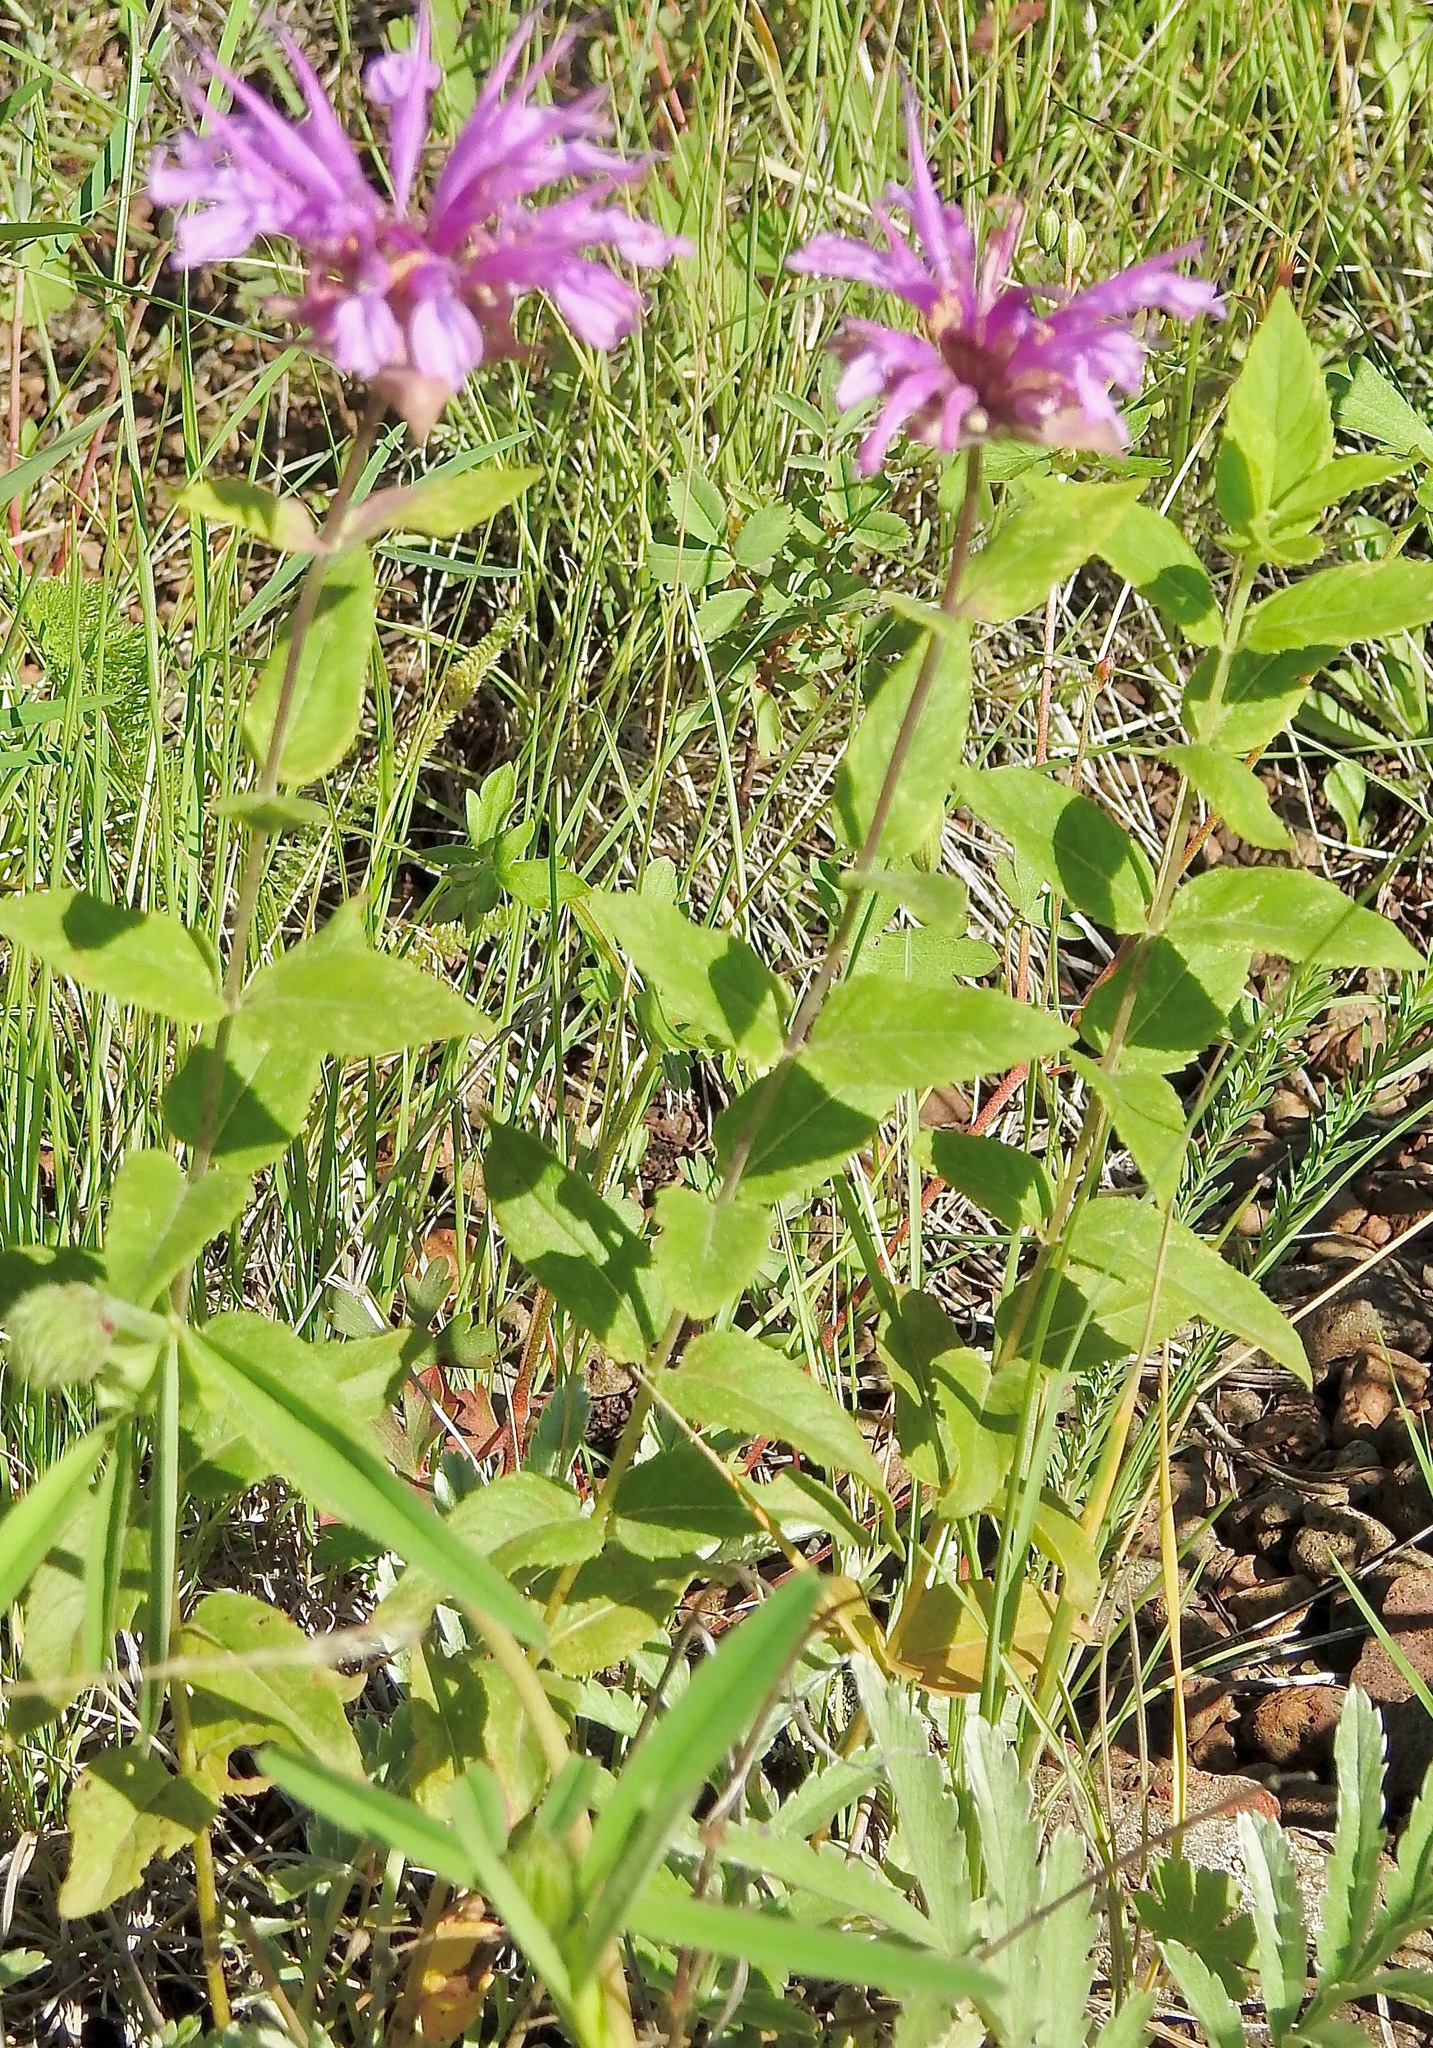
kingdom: Plantae
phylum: Tracheophyta
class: Magnoliopsida
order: Lamiales
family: Lamiaceae
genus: Monarda
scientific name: Monarda fistulosa
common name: Purple beebalm
